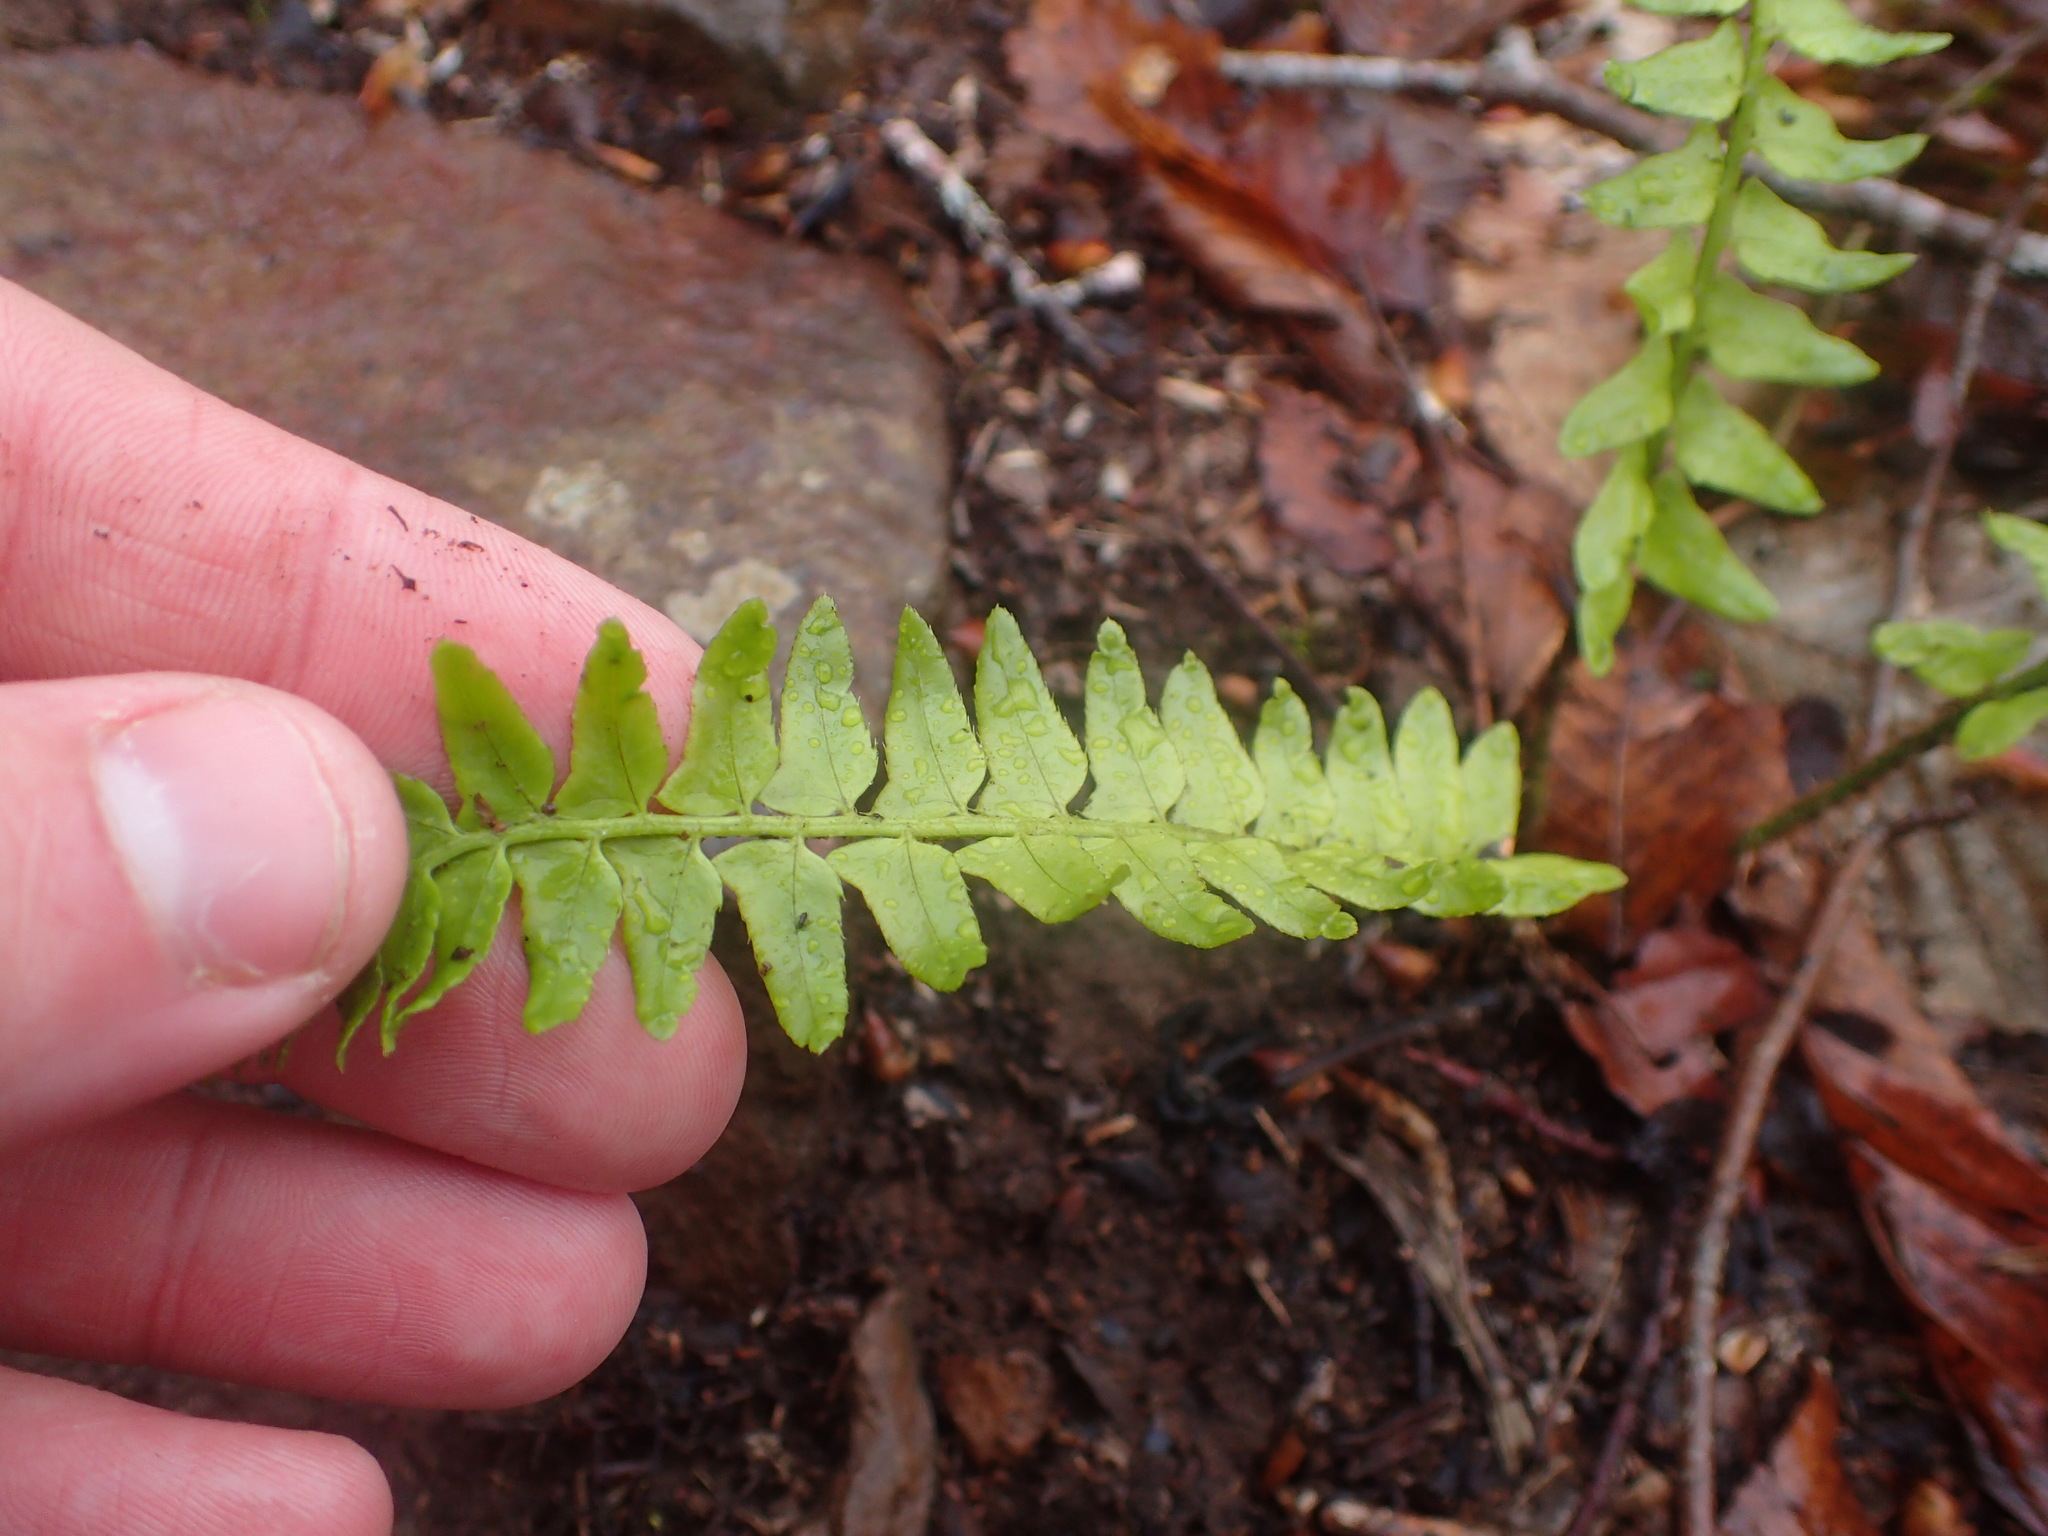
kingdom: Plantae
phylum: Tracheophyta
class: Polypodiopsida
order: Polypodiales
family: Dryopteridaceae
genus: Polystichum
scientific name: Polystichum acrostichoides
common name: Christmas fern
